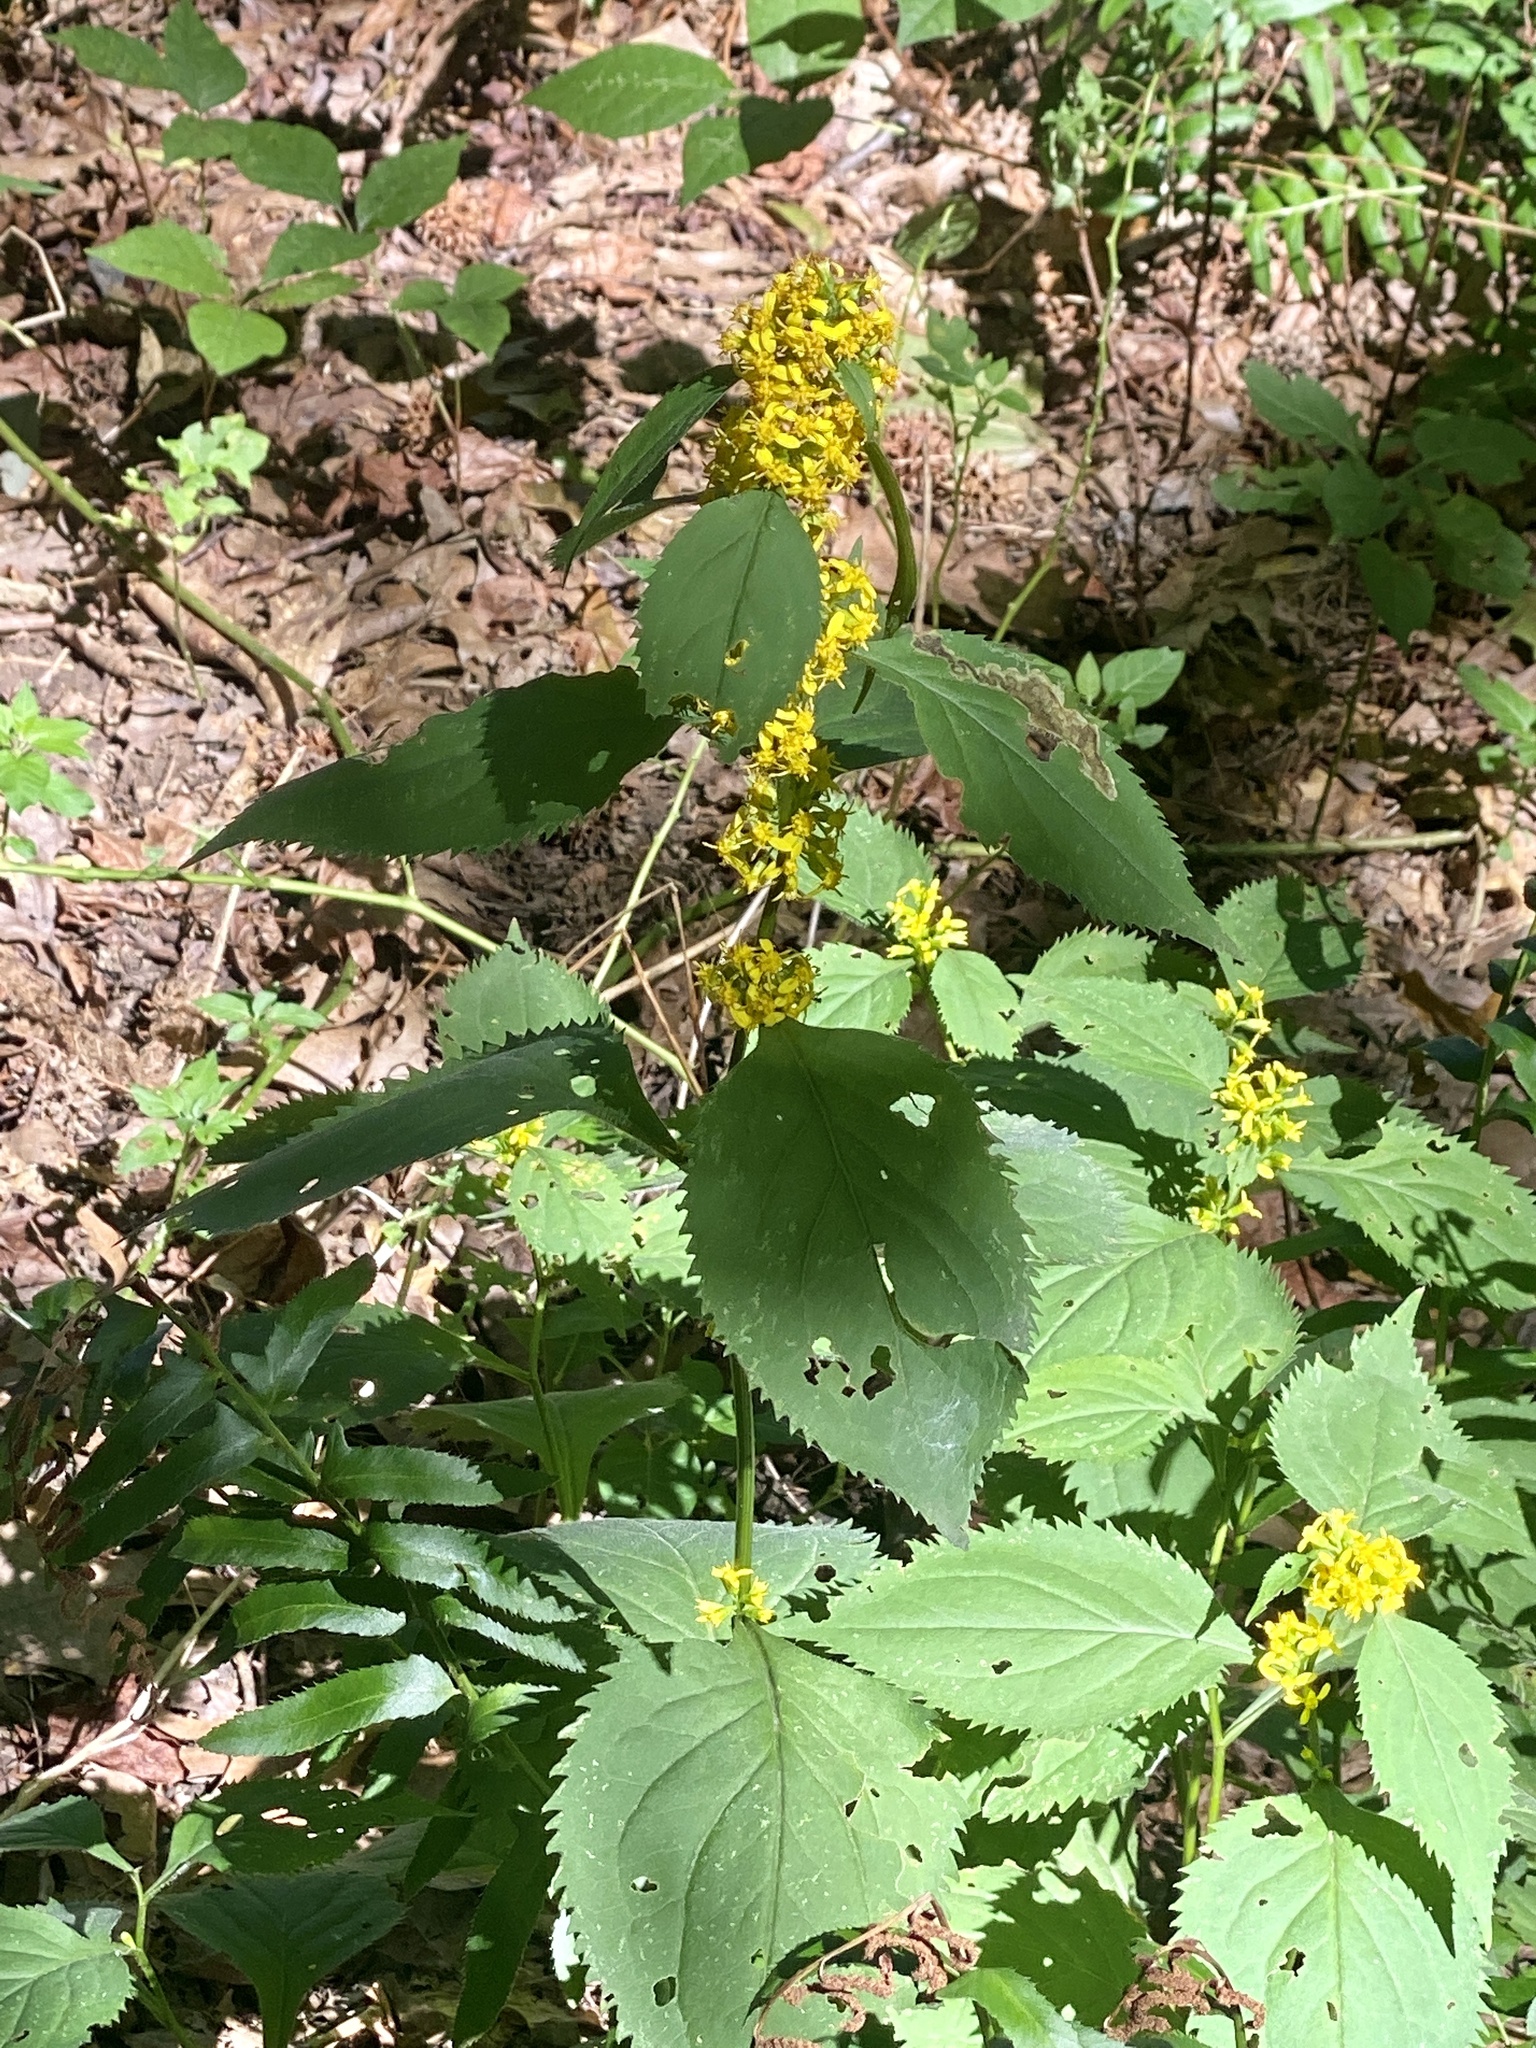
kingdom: Plantae
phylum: Tracheophyta
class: Magnoliopsida
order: Asterales
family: Asteraceae
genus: Solidago
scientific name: Solidago flexicaulis
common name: Zig-zag goldenrod
